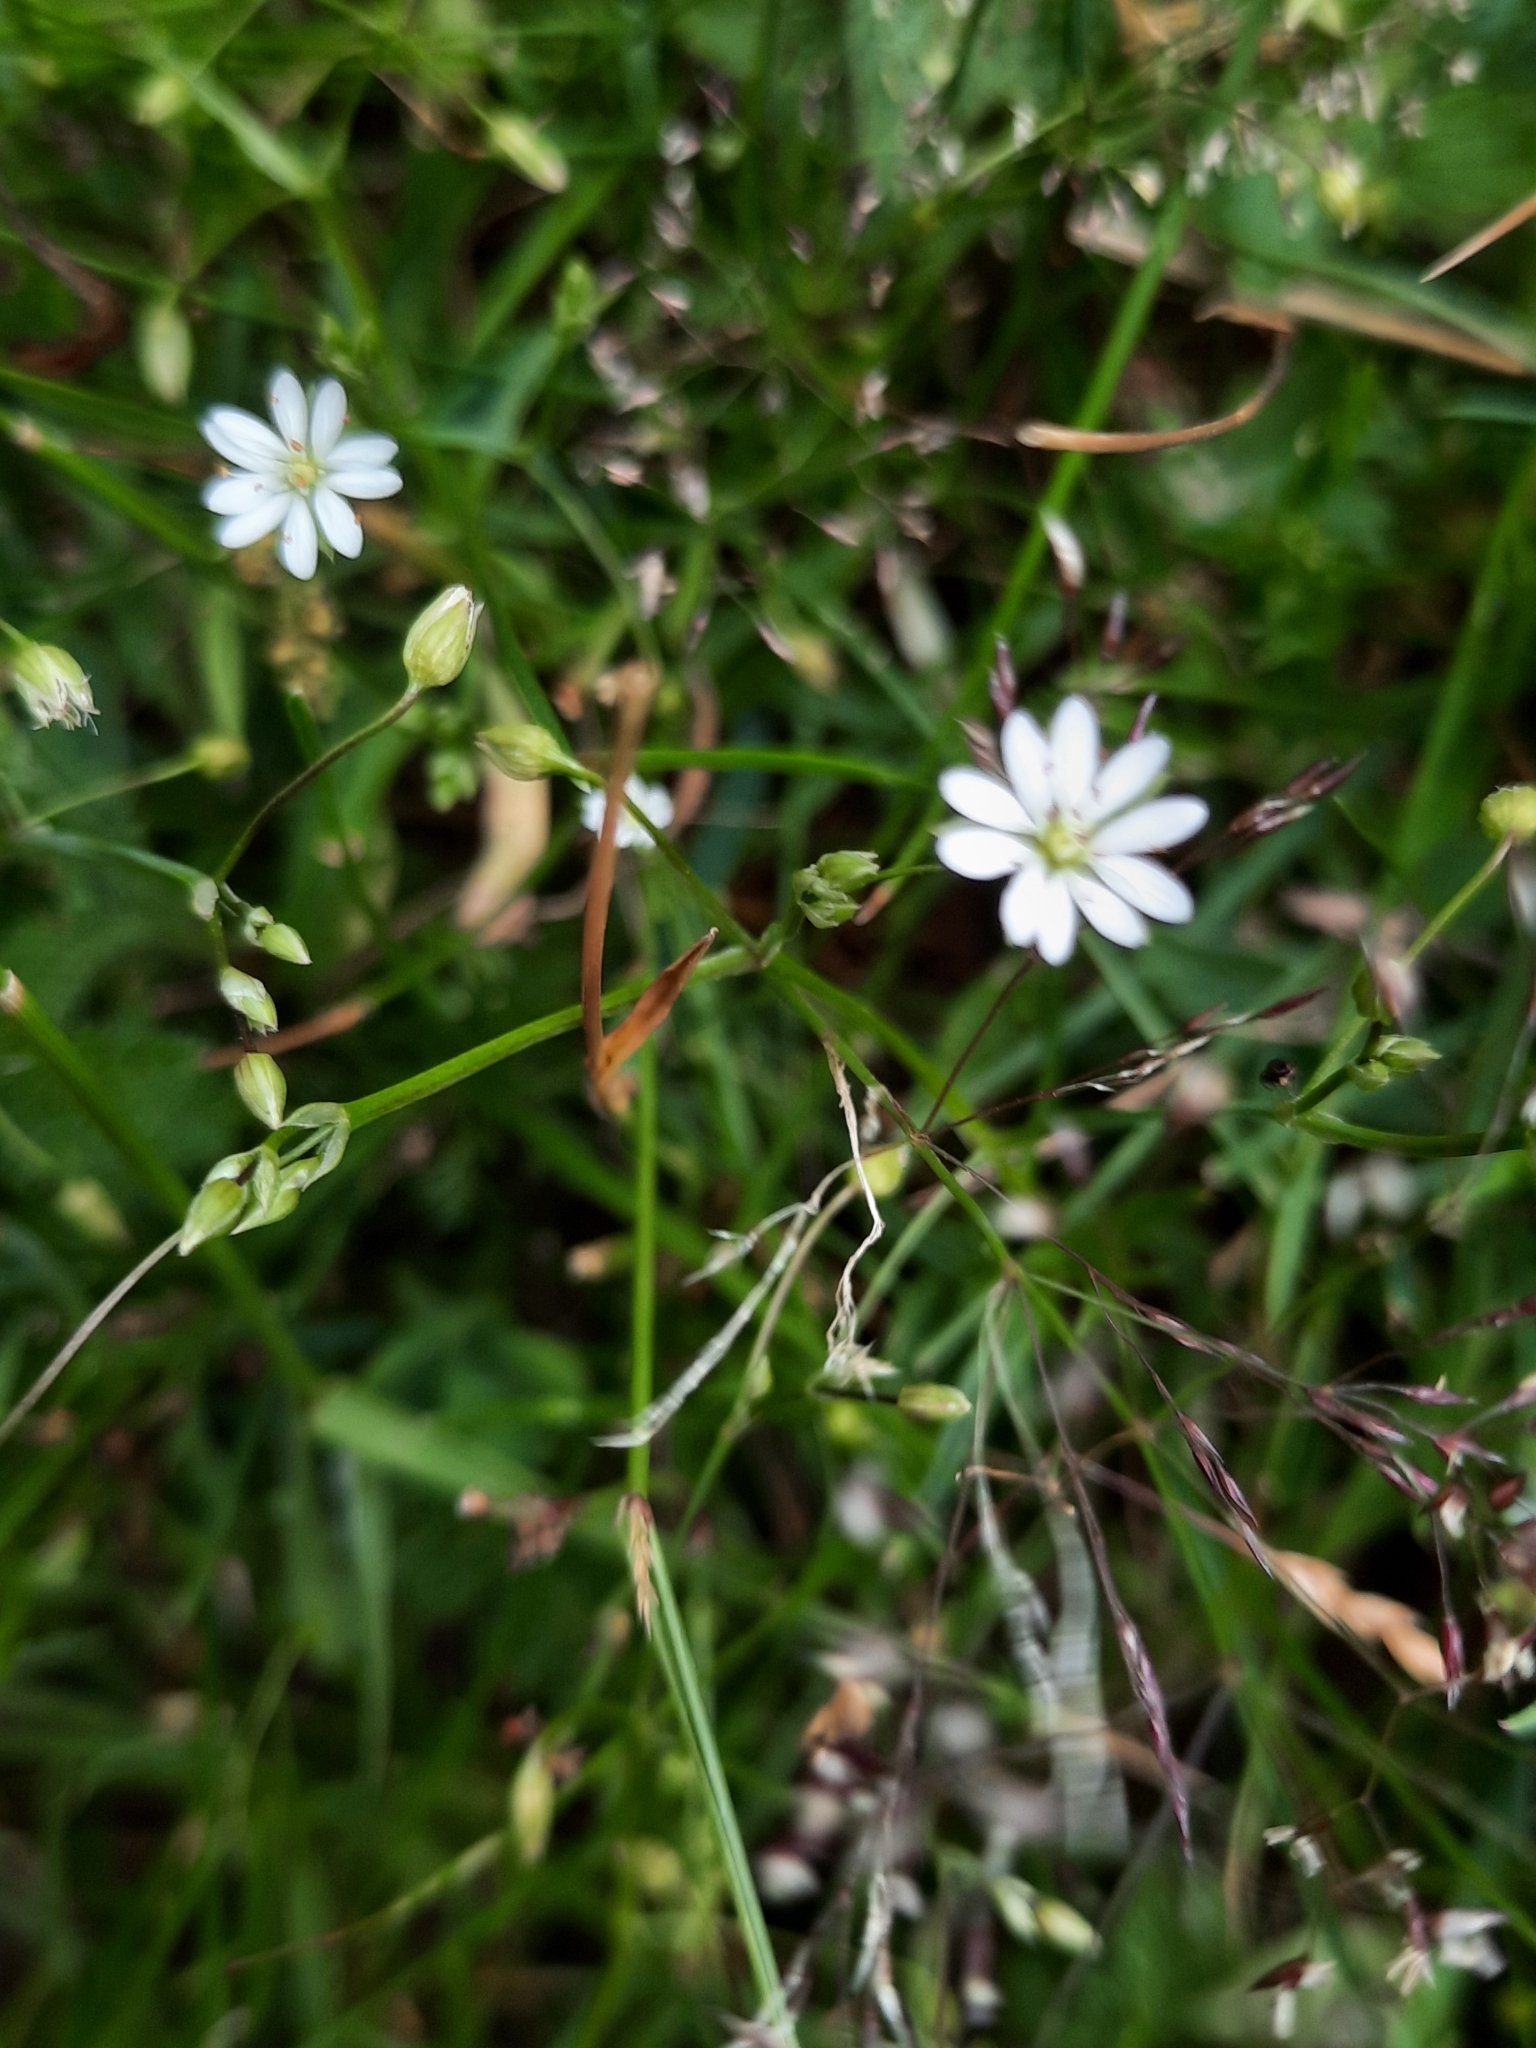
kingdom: Plantae
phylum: Tracheophyta
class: Magnoliopsida
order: Caryophyllales
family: Caryophyllaceae
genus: Stellaria
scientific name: Stellaria graminea
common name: Grass-like starwort
